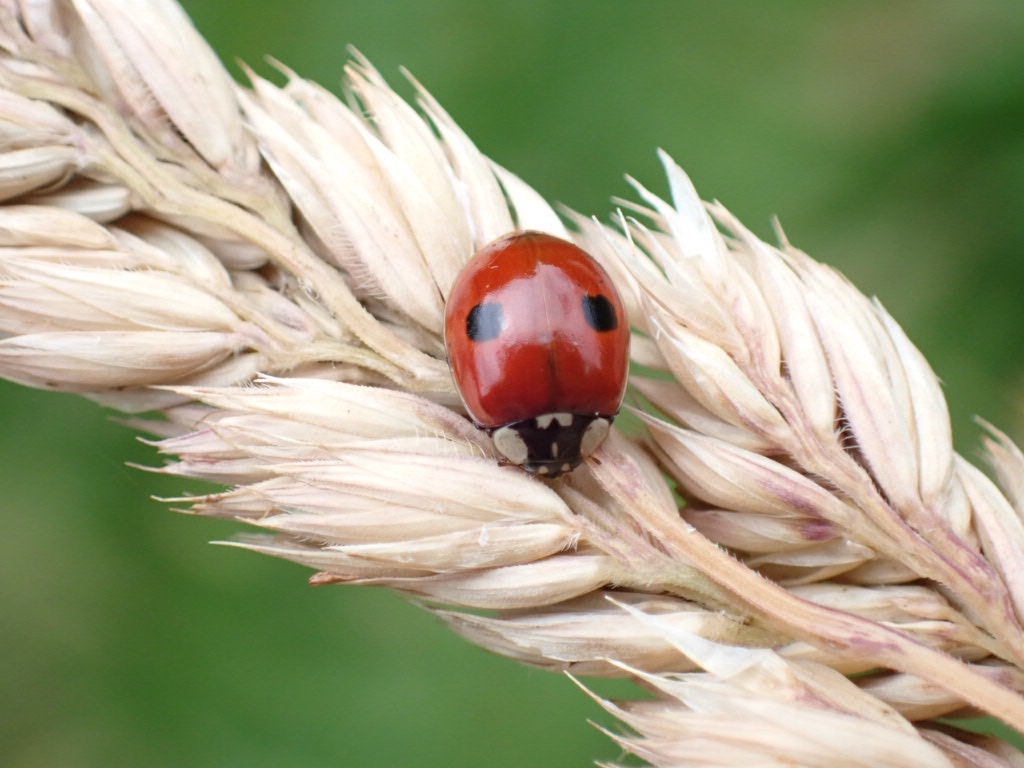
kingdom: Animalia
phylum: Arthropoda
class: Insecta
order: Coleoptera
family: Coccinellidae
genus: Adalia
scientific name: Adalia bipunctata
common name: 2-spot ladybird
